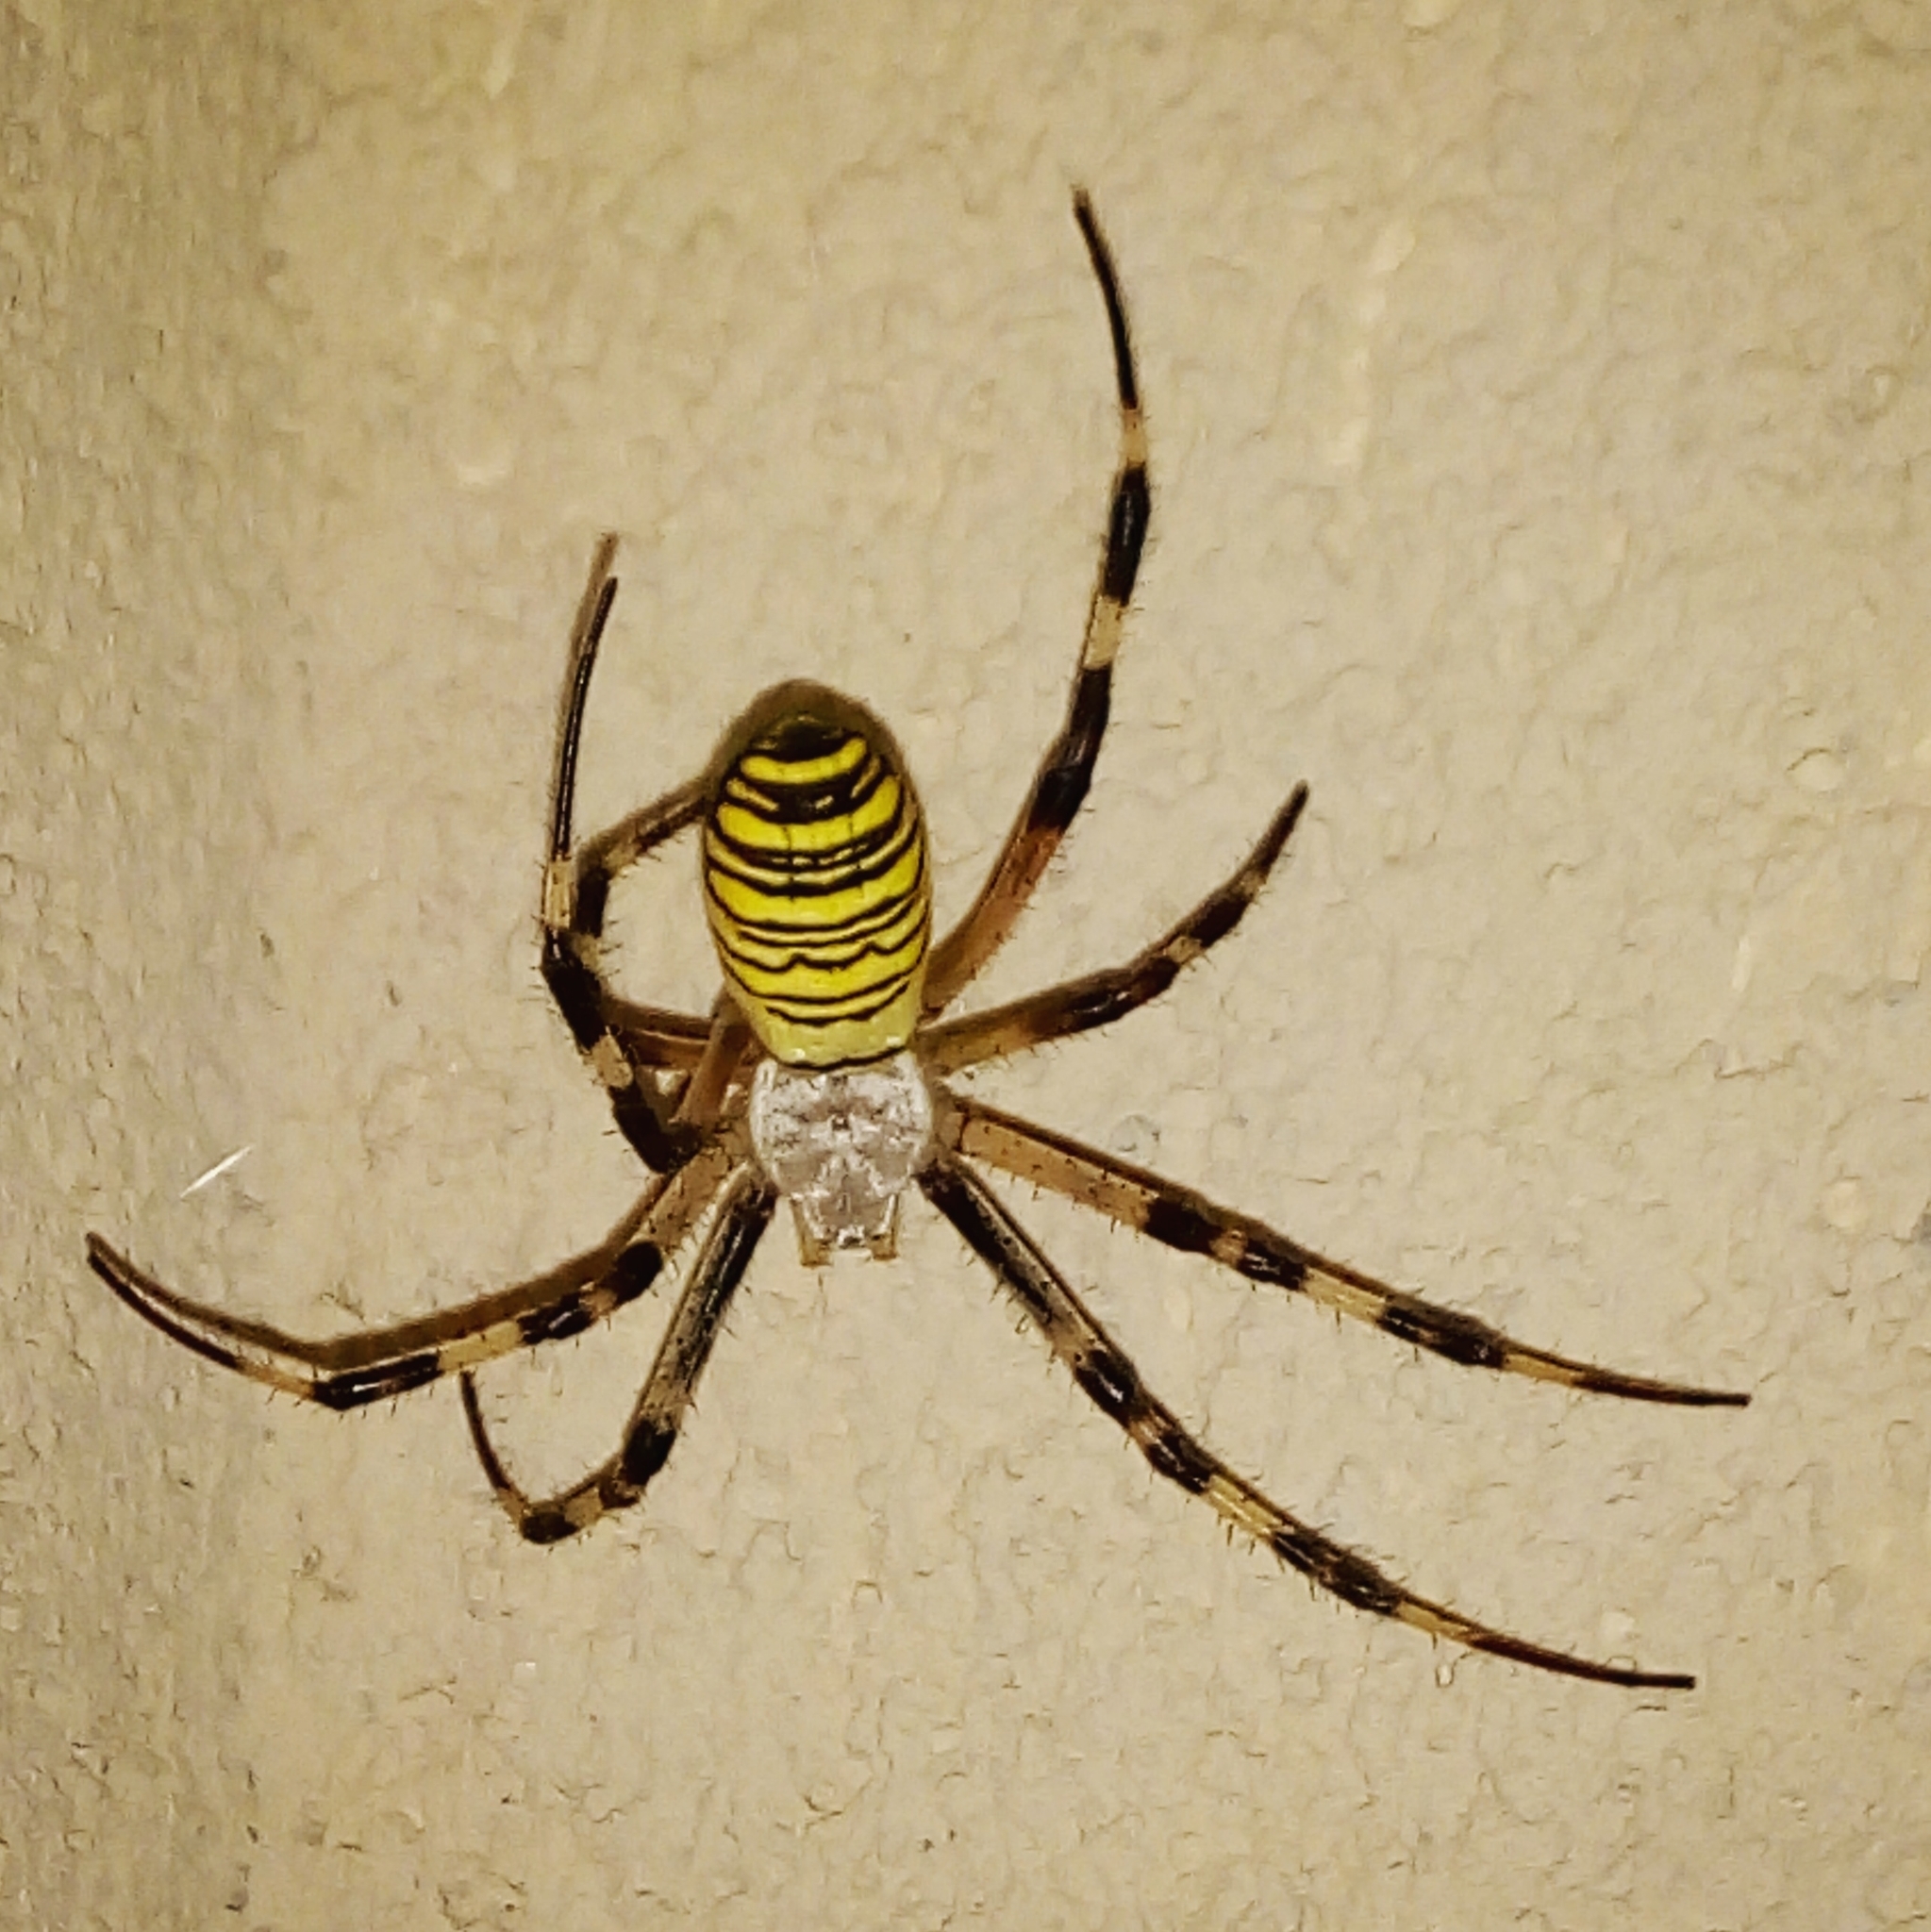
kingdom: Animalia
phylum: Arthropoda
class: Arachnida
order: Araneae
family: Araneidae
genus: Argiope
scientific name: Argiope bruennichi
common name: Wasp spider
